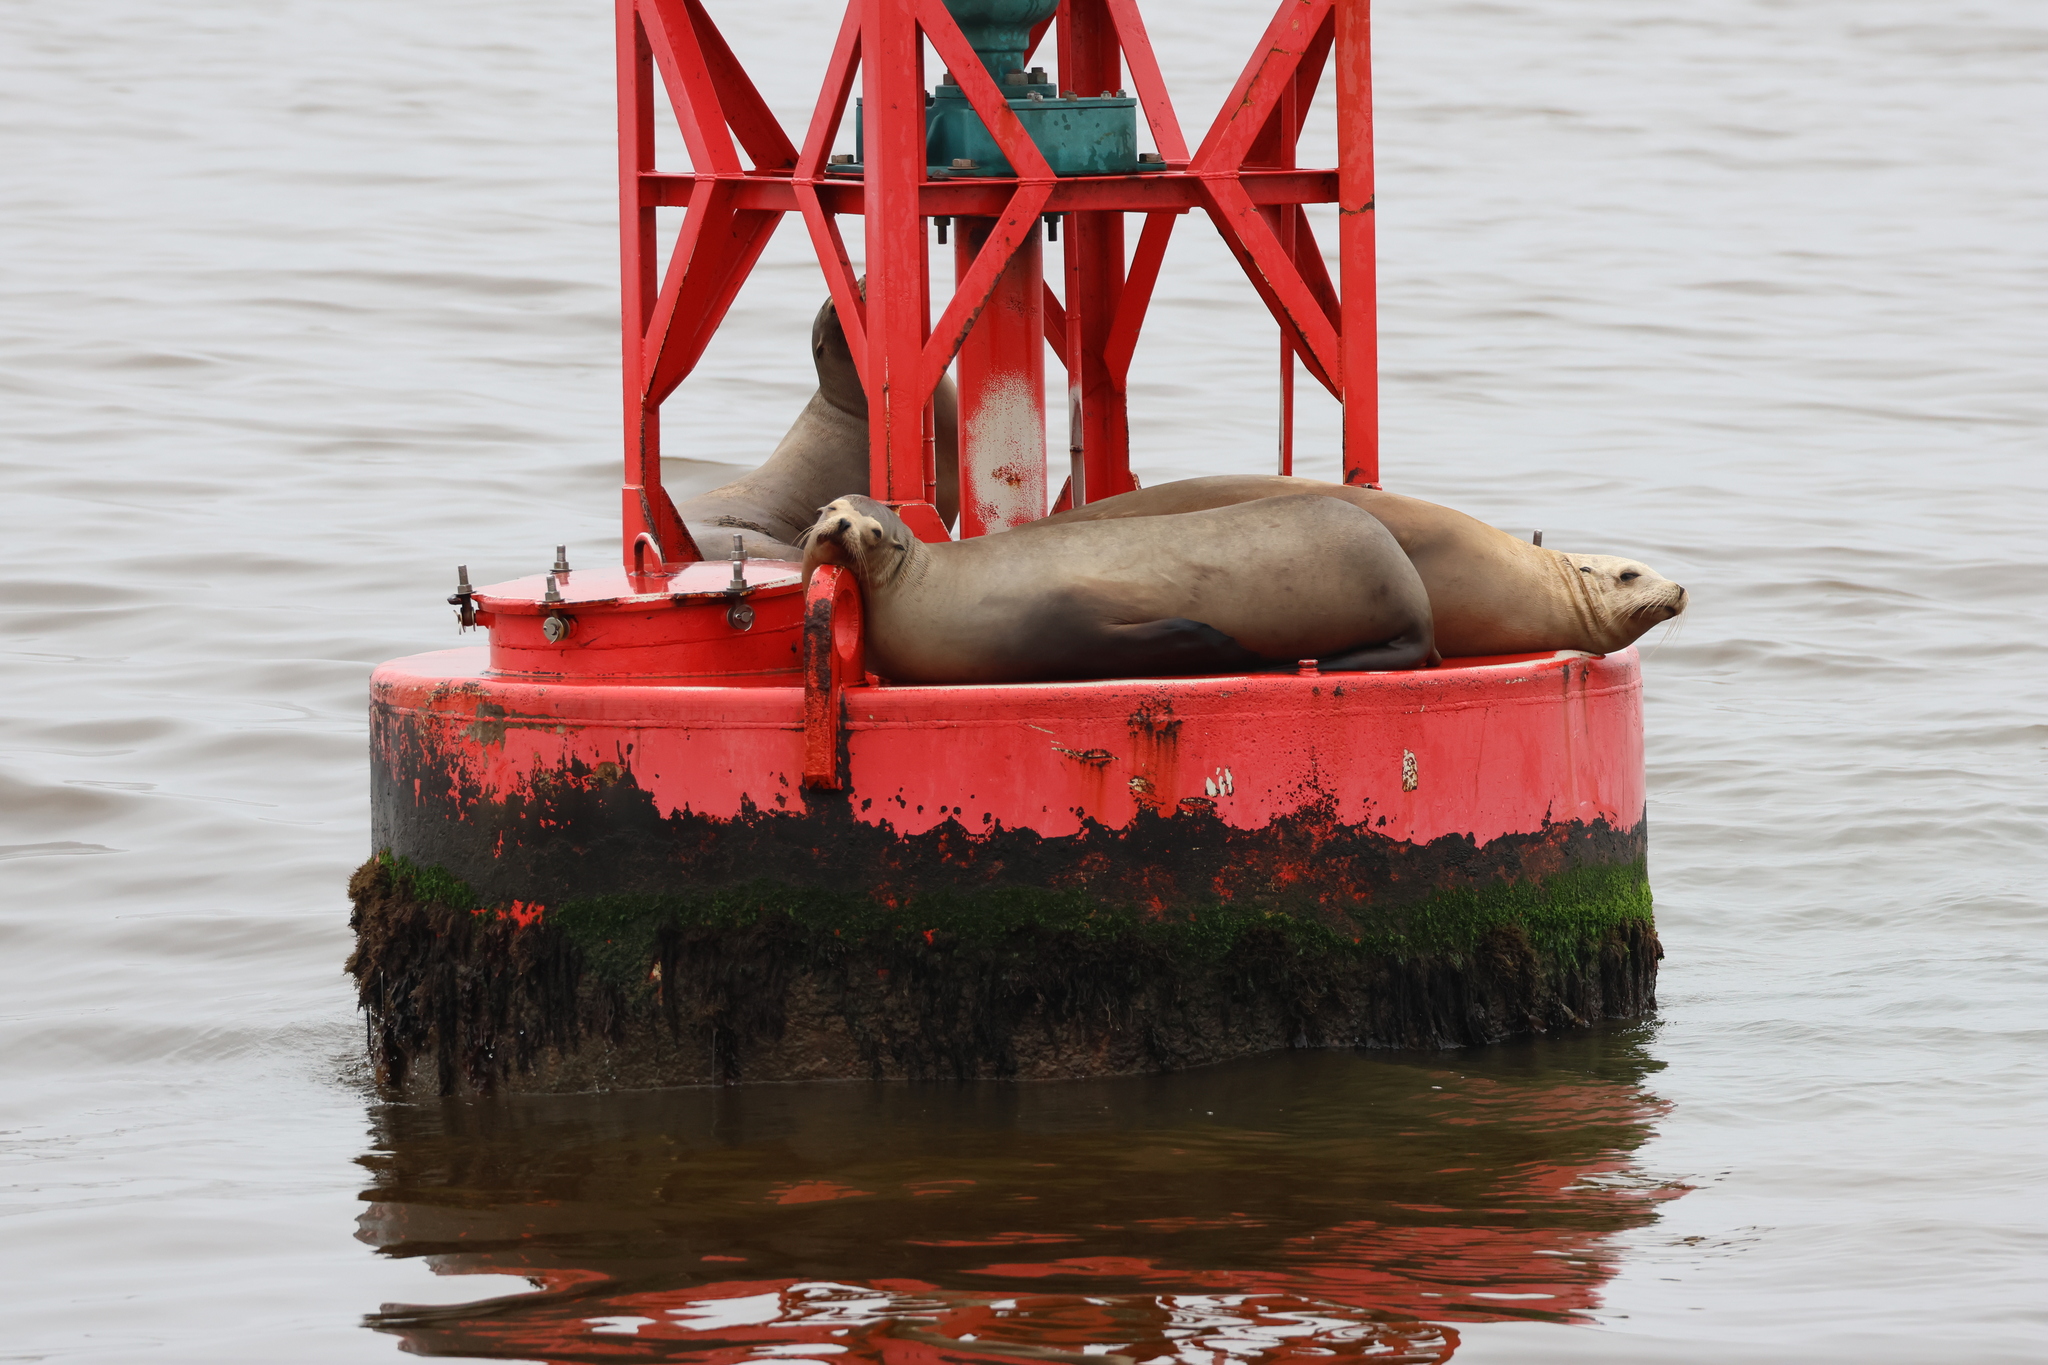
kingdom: Animalia
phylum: Chordata
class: Mammalia
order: Carnivora
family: Otariidae
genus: Zalophus
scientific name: Zalophus californianus
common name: California sea lion
